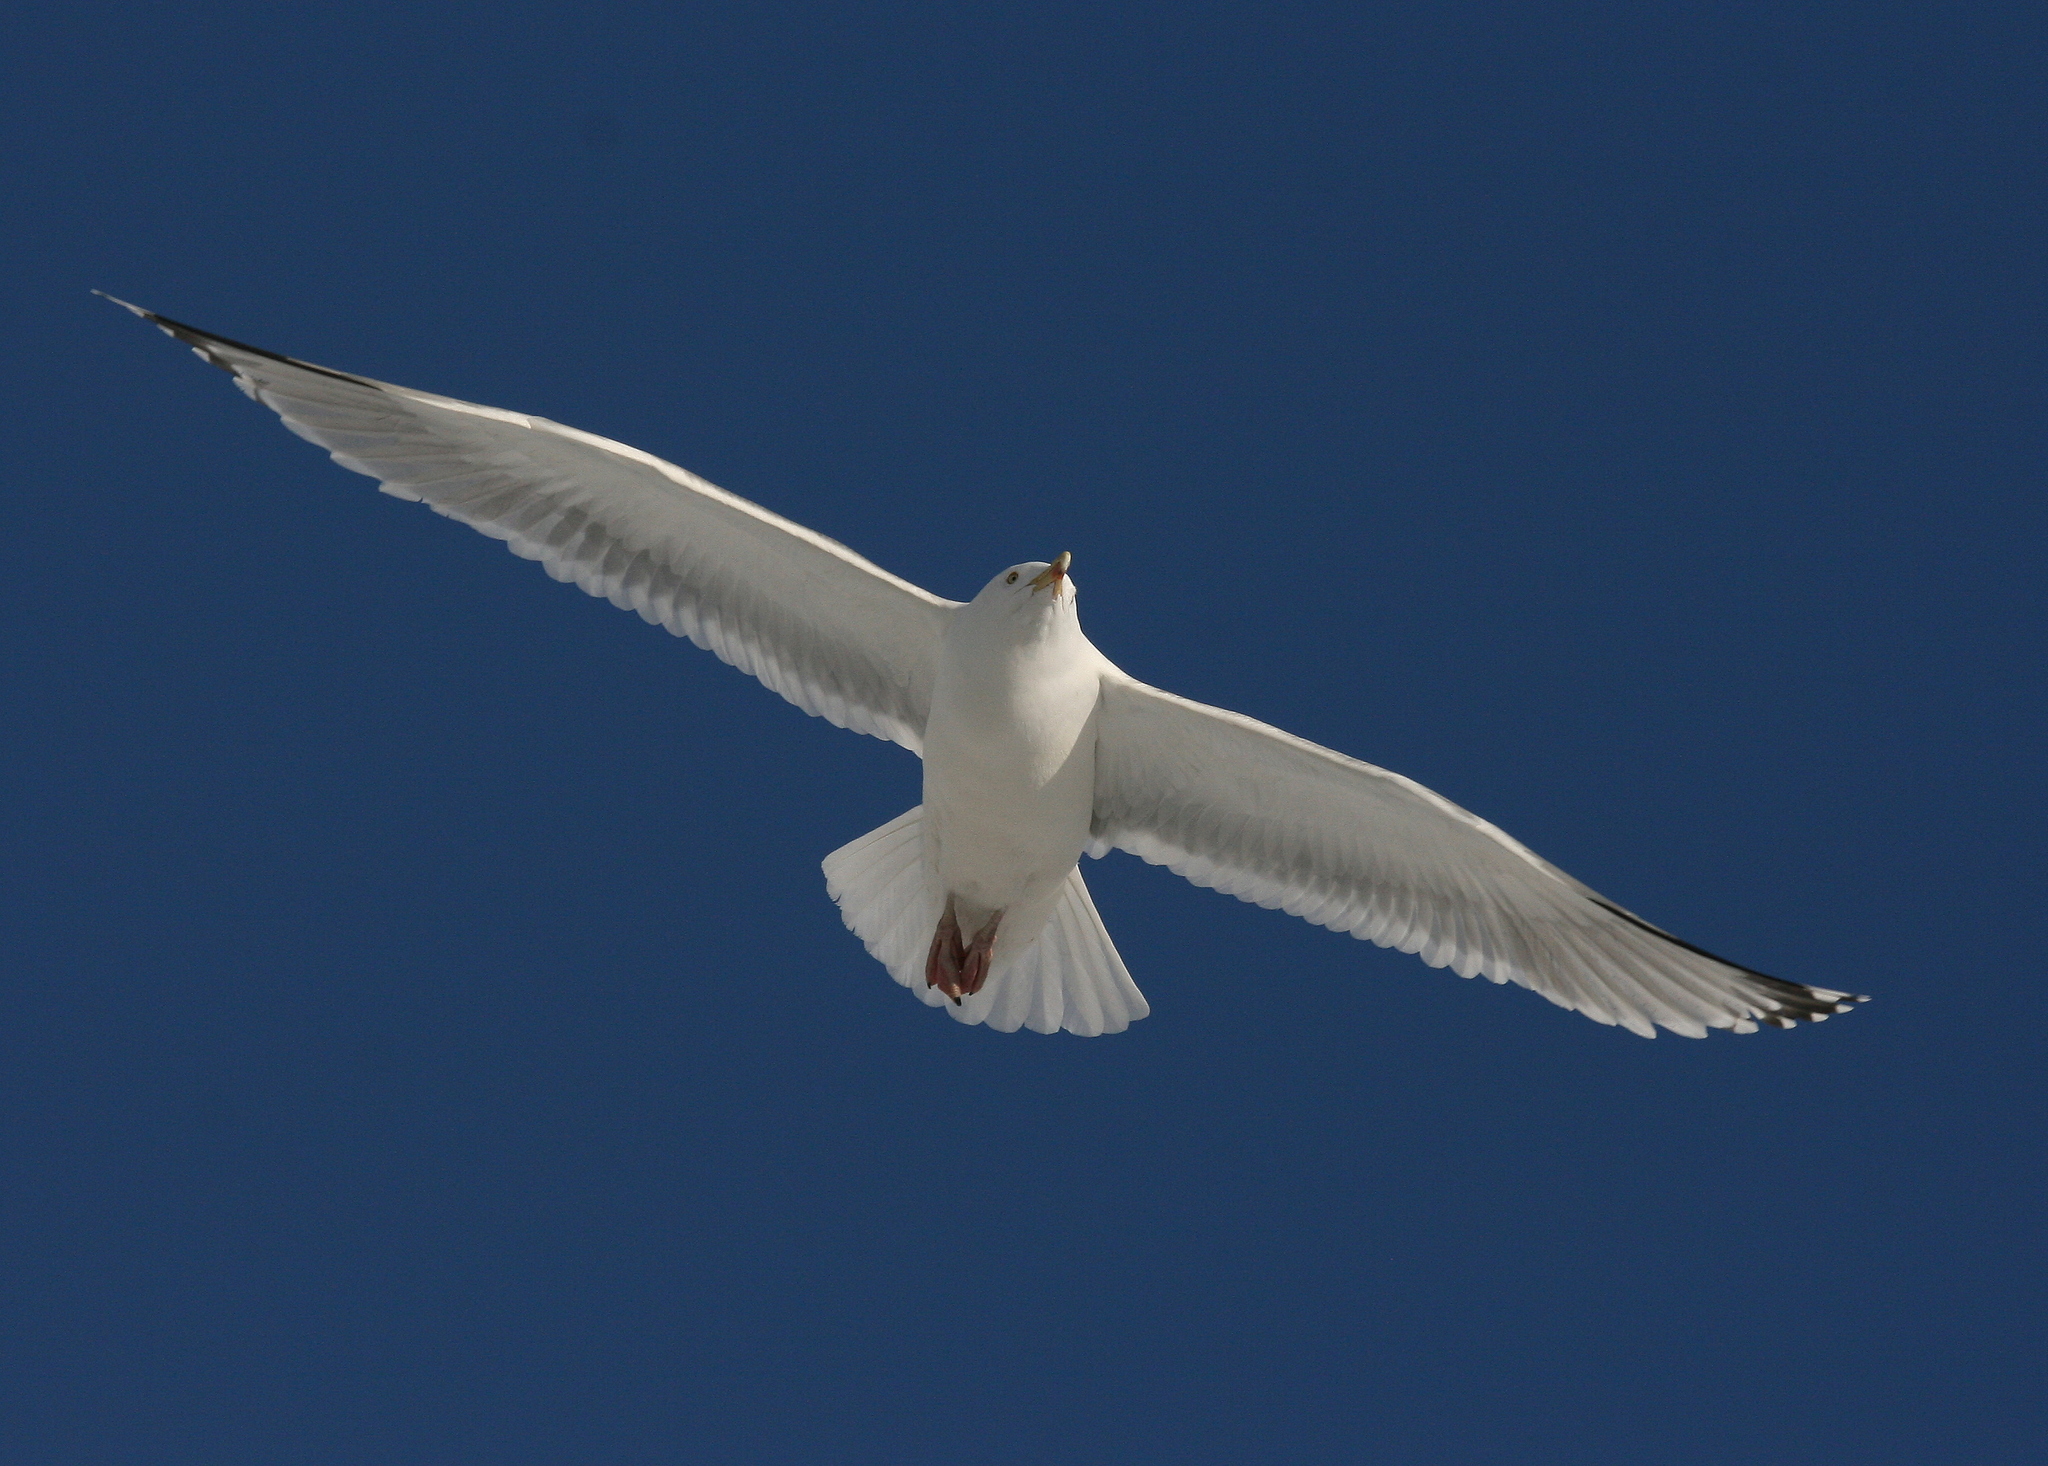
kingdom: Animalia
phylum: Chordata
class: Aves
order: Charadriiformes
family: Laridae
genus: Larus
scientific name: Larus argentatus
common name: Herring gull
